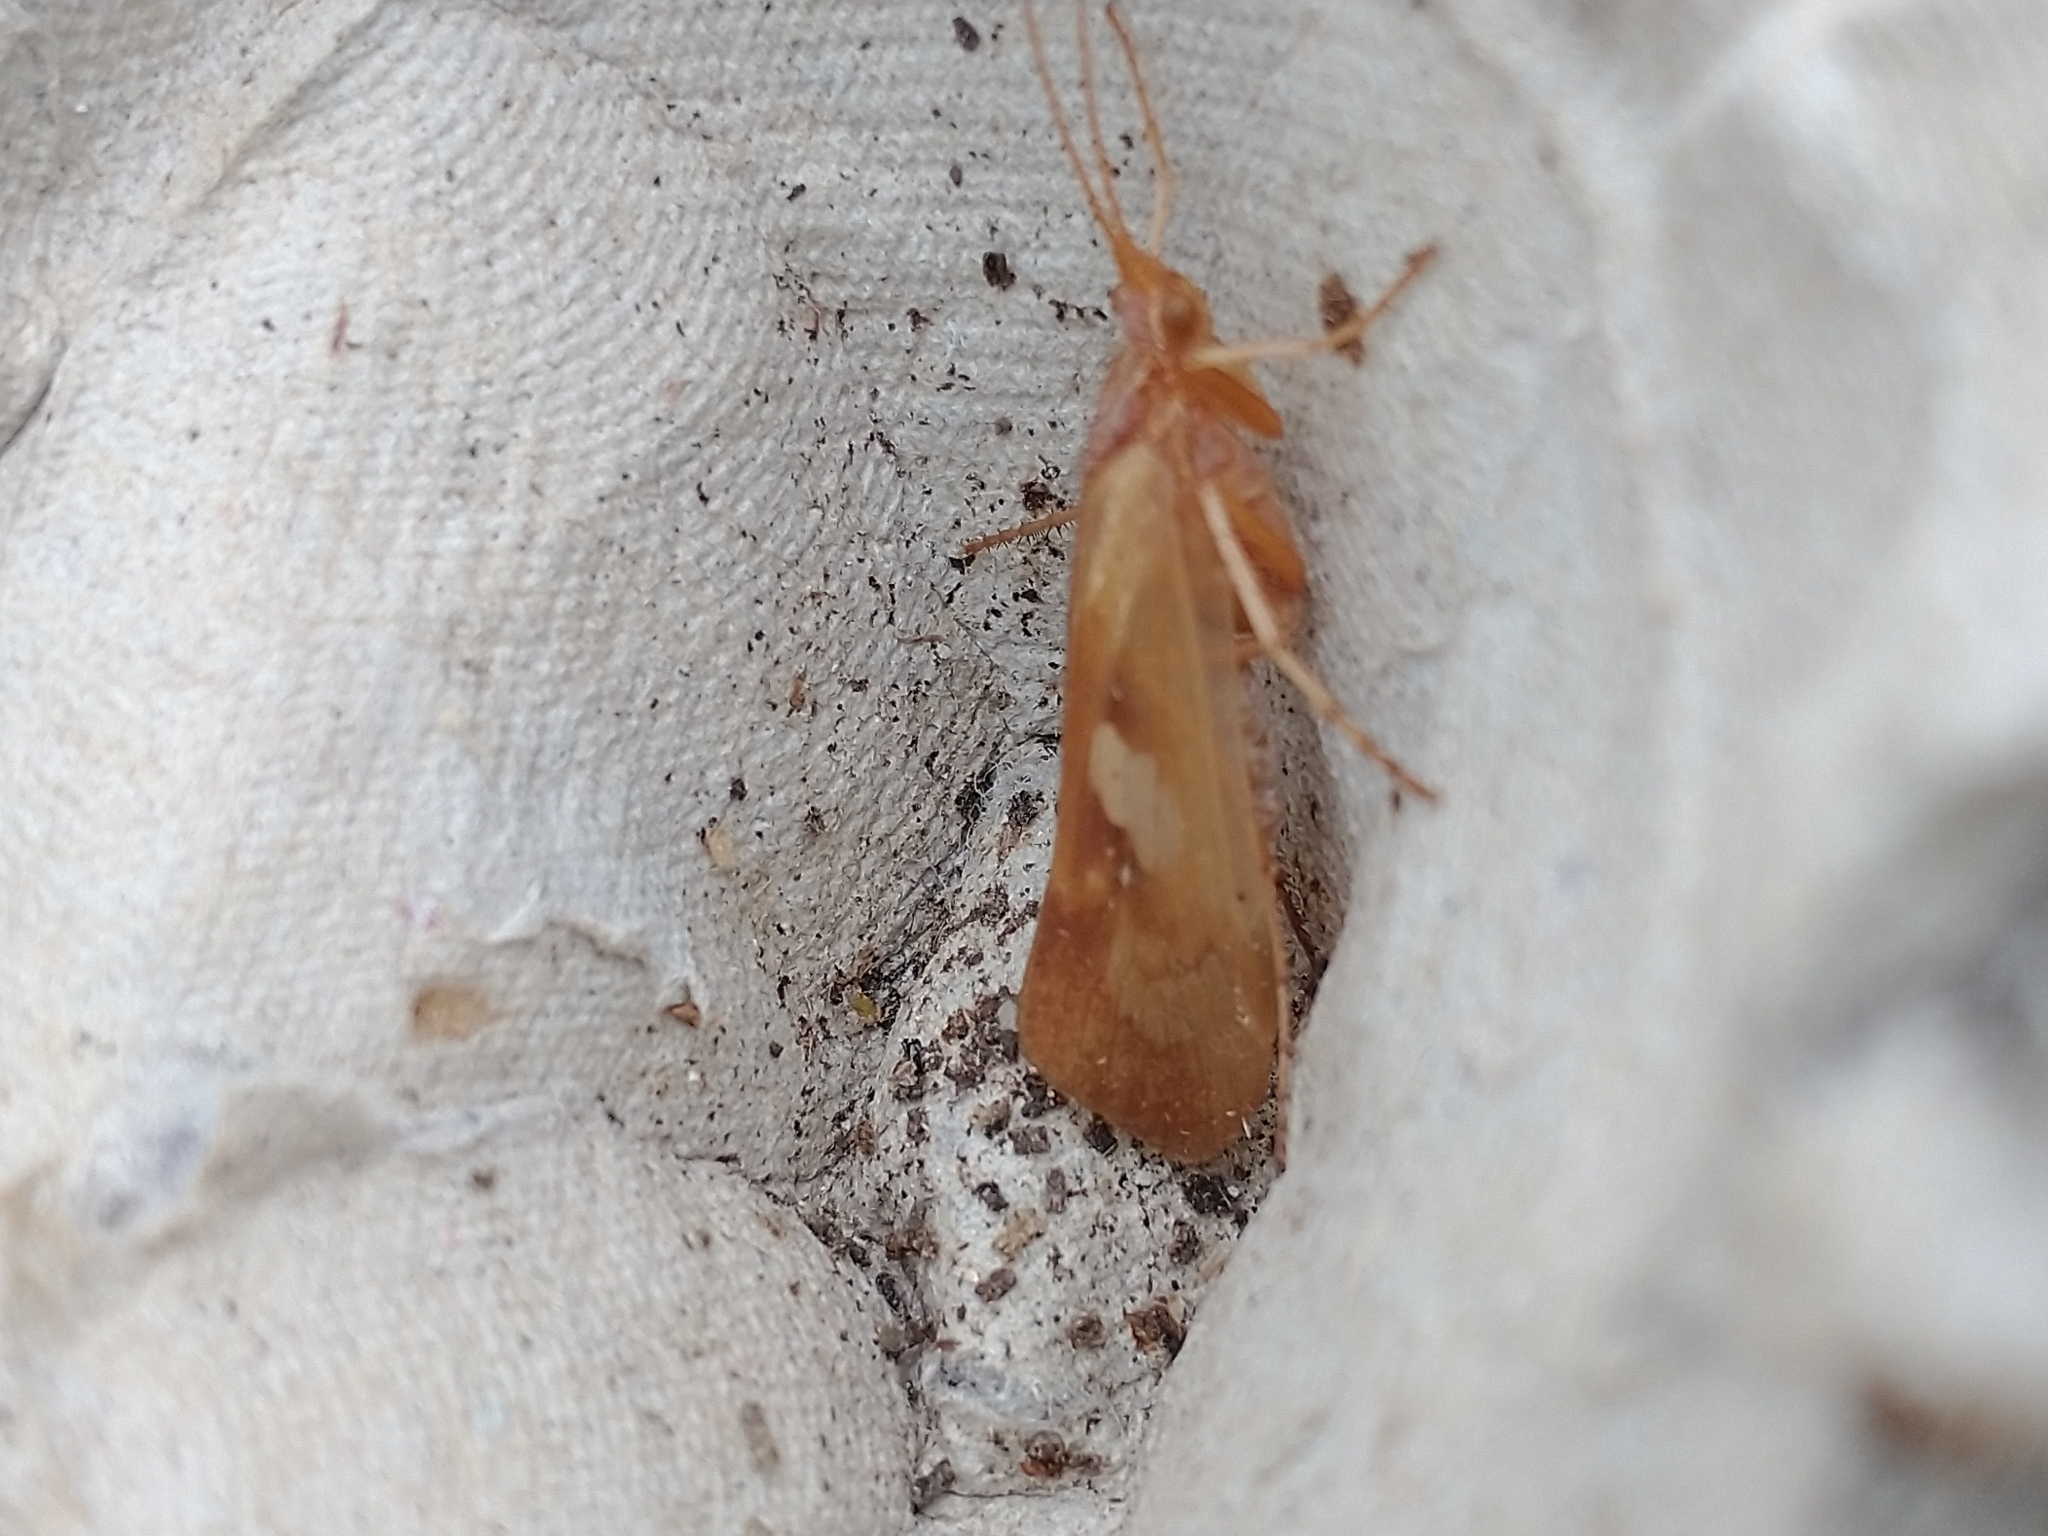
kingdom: Animalia
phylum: Arthropoda
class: Insecta
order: Trichoptera
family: Limnephilidae
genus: Limnephilus
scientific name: Limnephilus rhombicus
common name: Diamond northern caddisfly
